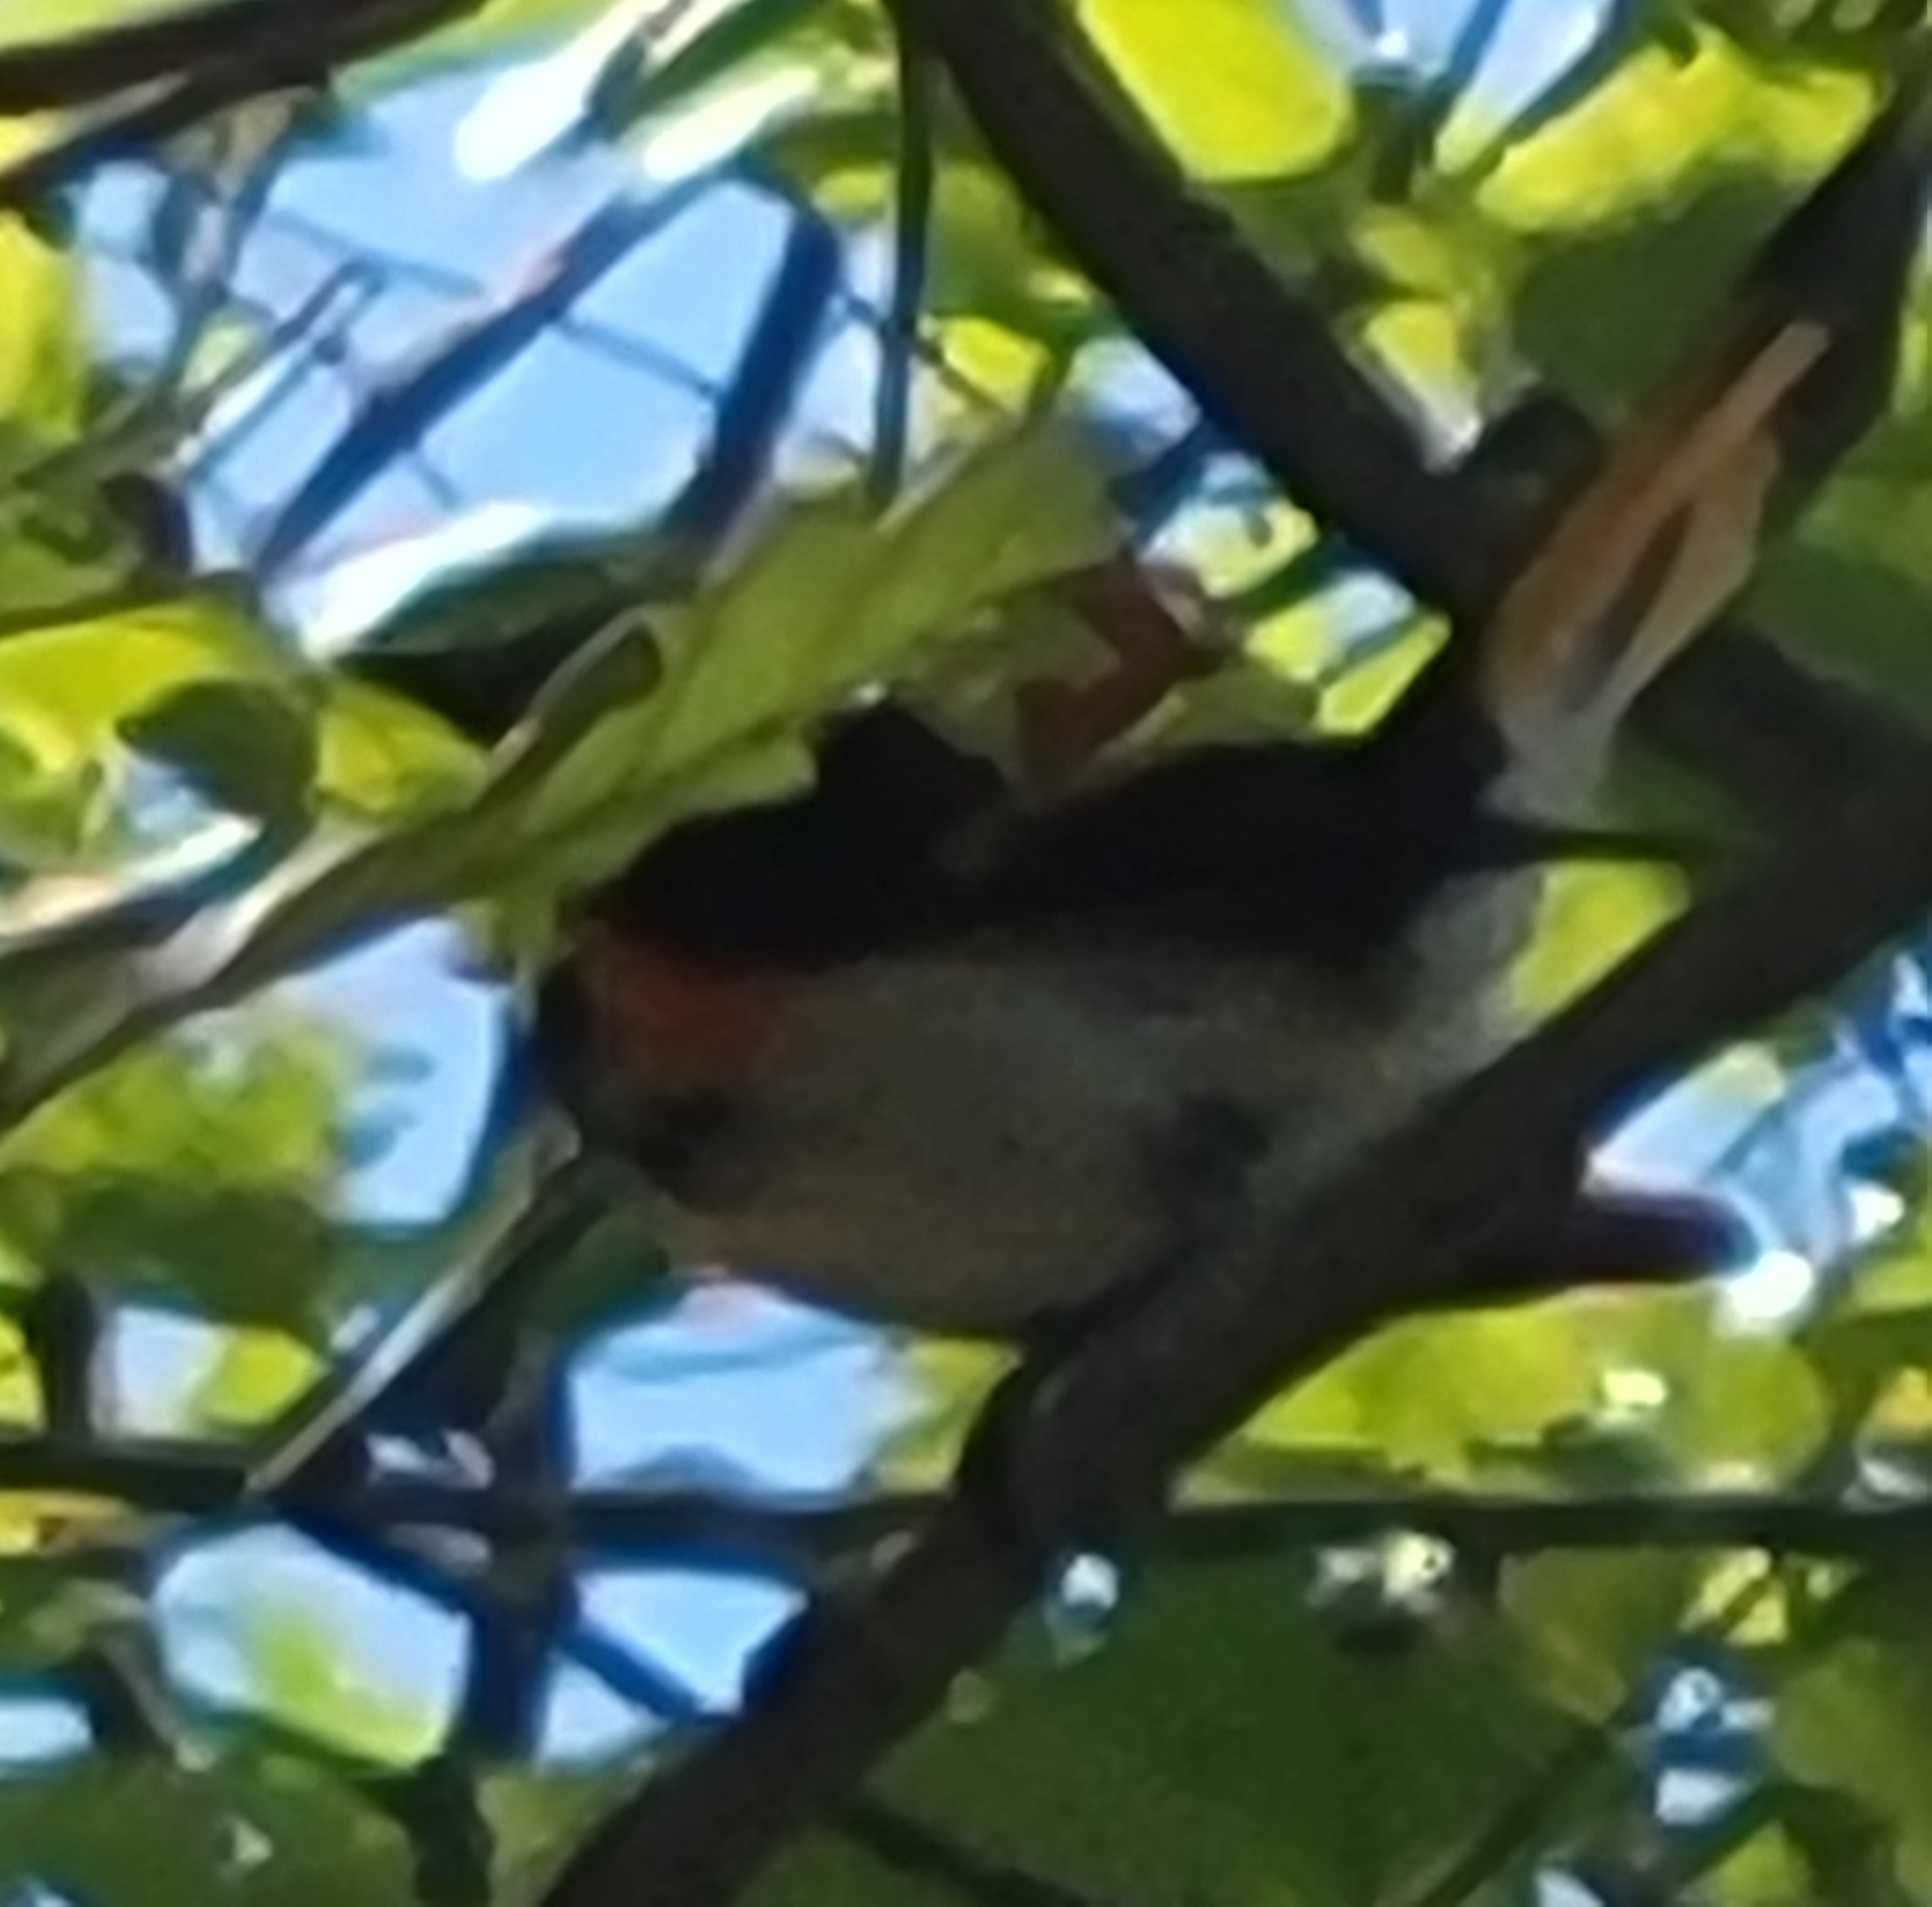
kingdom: Animalia
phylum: Chordata
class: Aves
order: Passeriformes
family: Parulidae
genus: Setophaga
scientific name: Setophaga ruticilla
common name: American redstart
